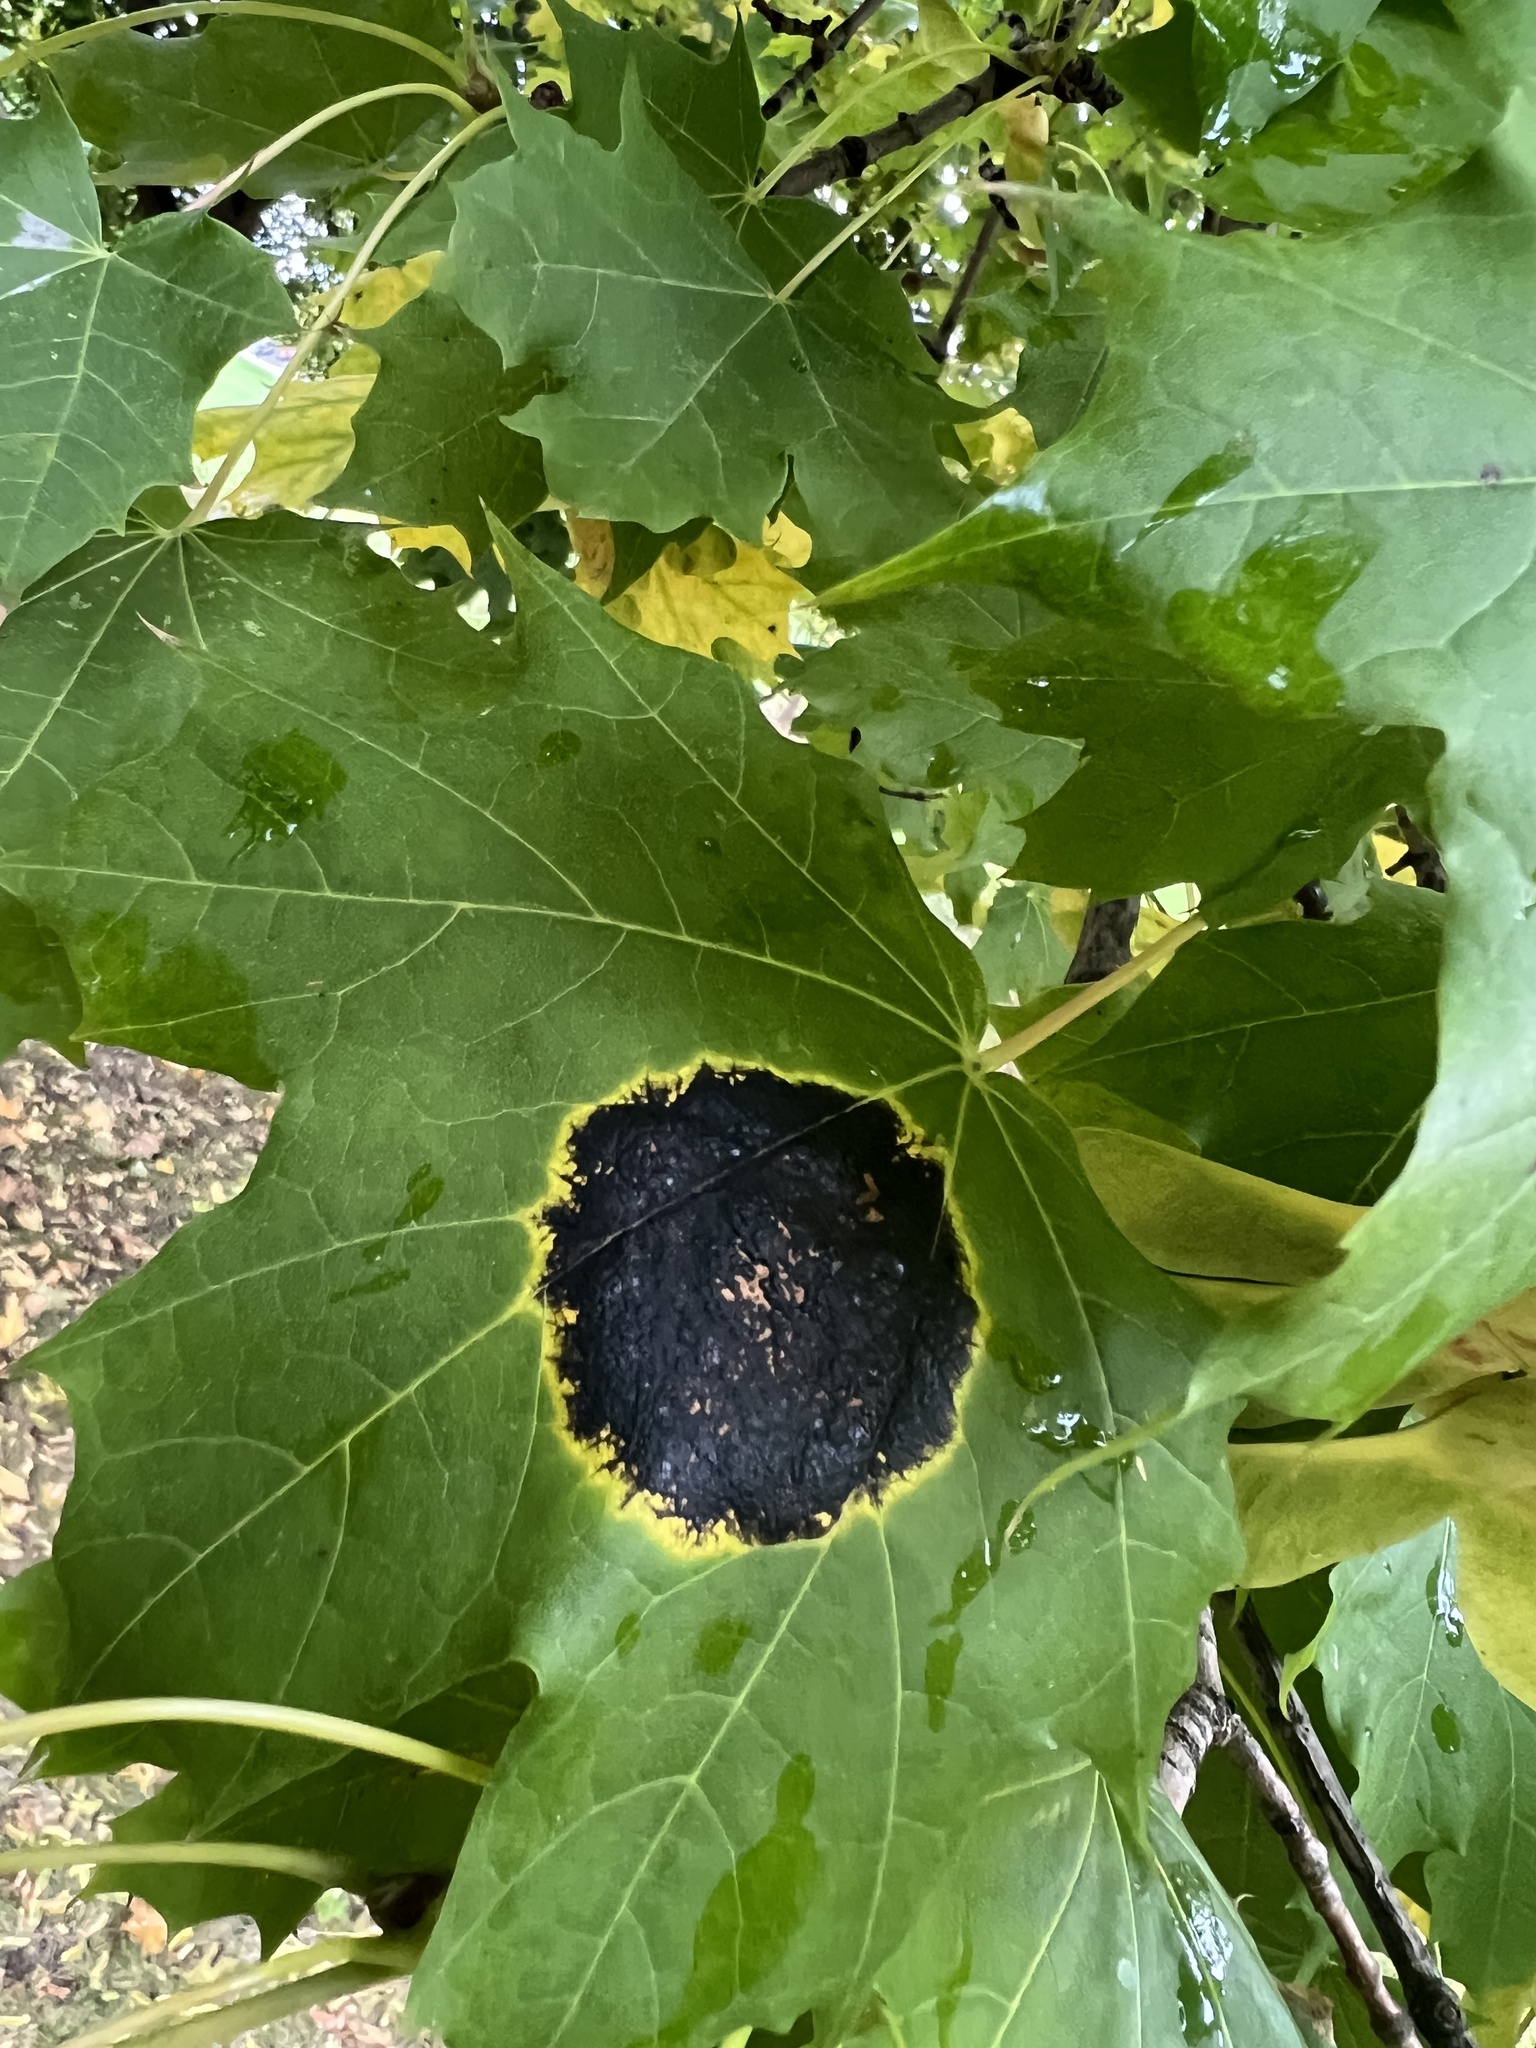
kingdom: Fungi
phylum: Ascomycota
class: Leotiomycetes
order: Rhytismatales
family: Rhytismataceae
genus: Rhytisma
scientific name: Rhytisma acerinum
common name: European tar spot
